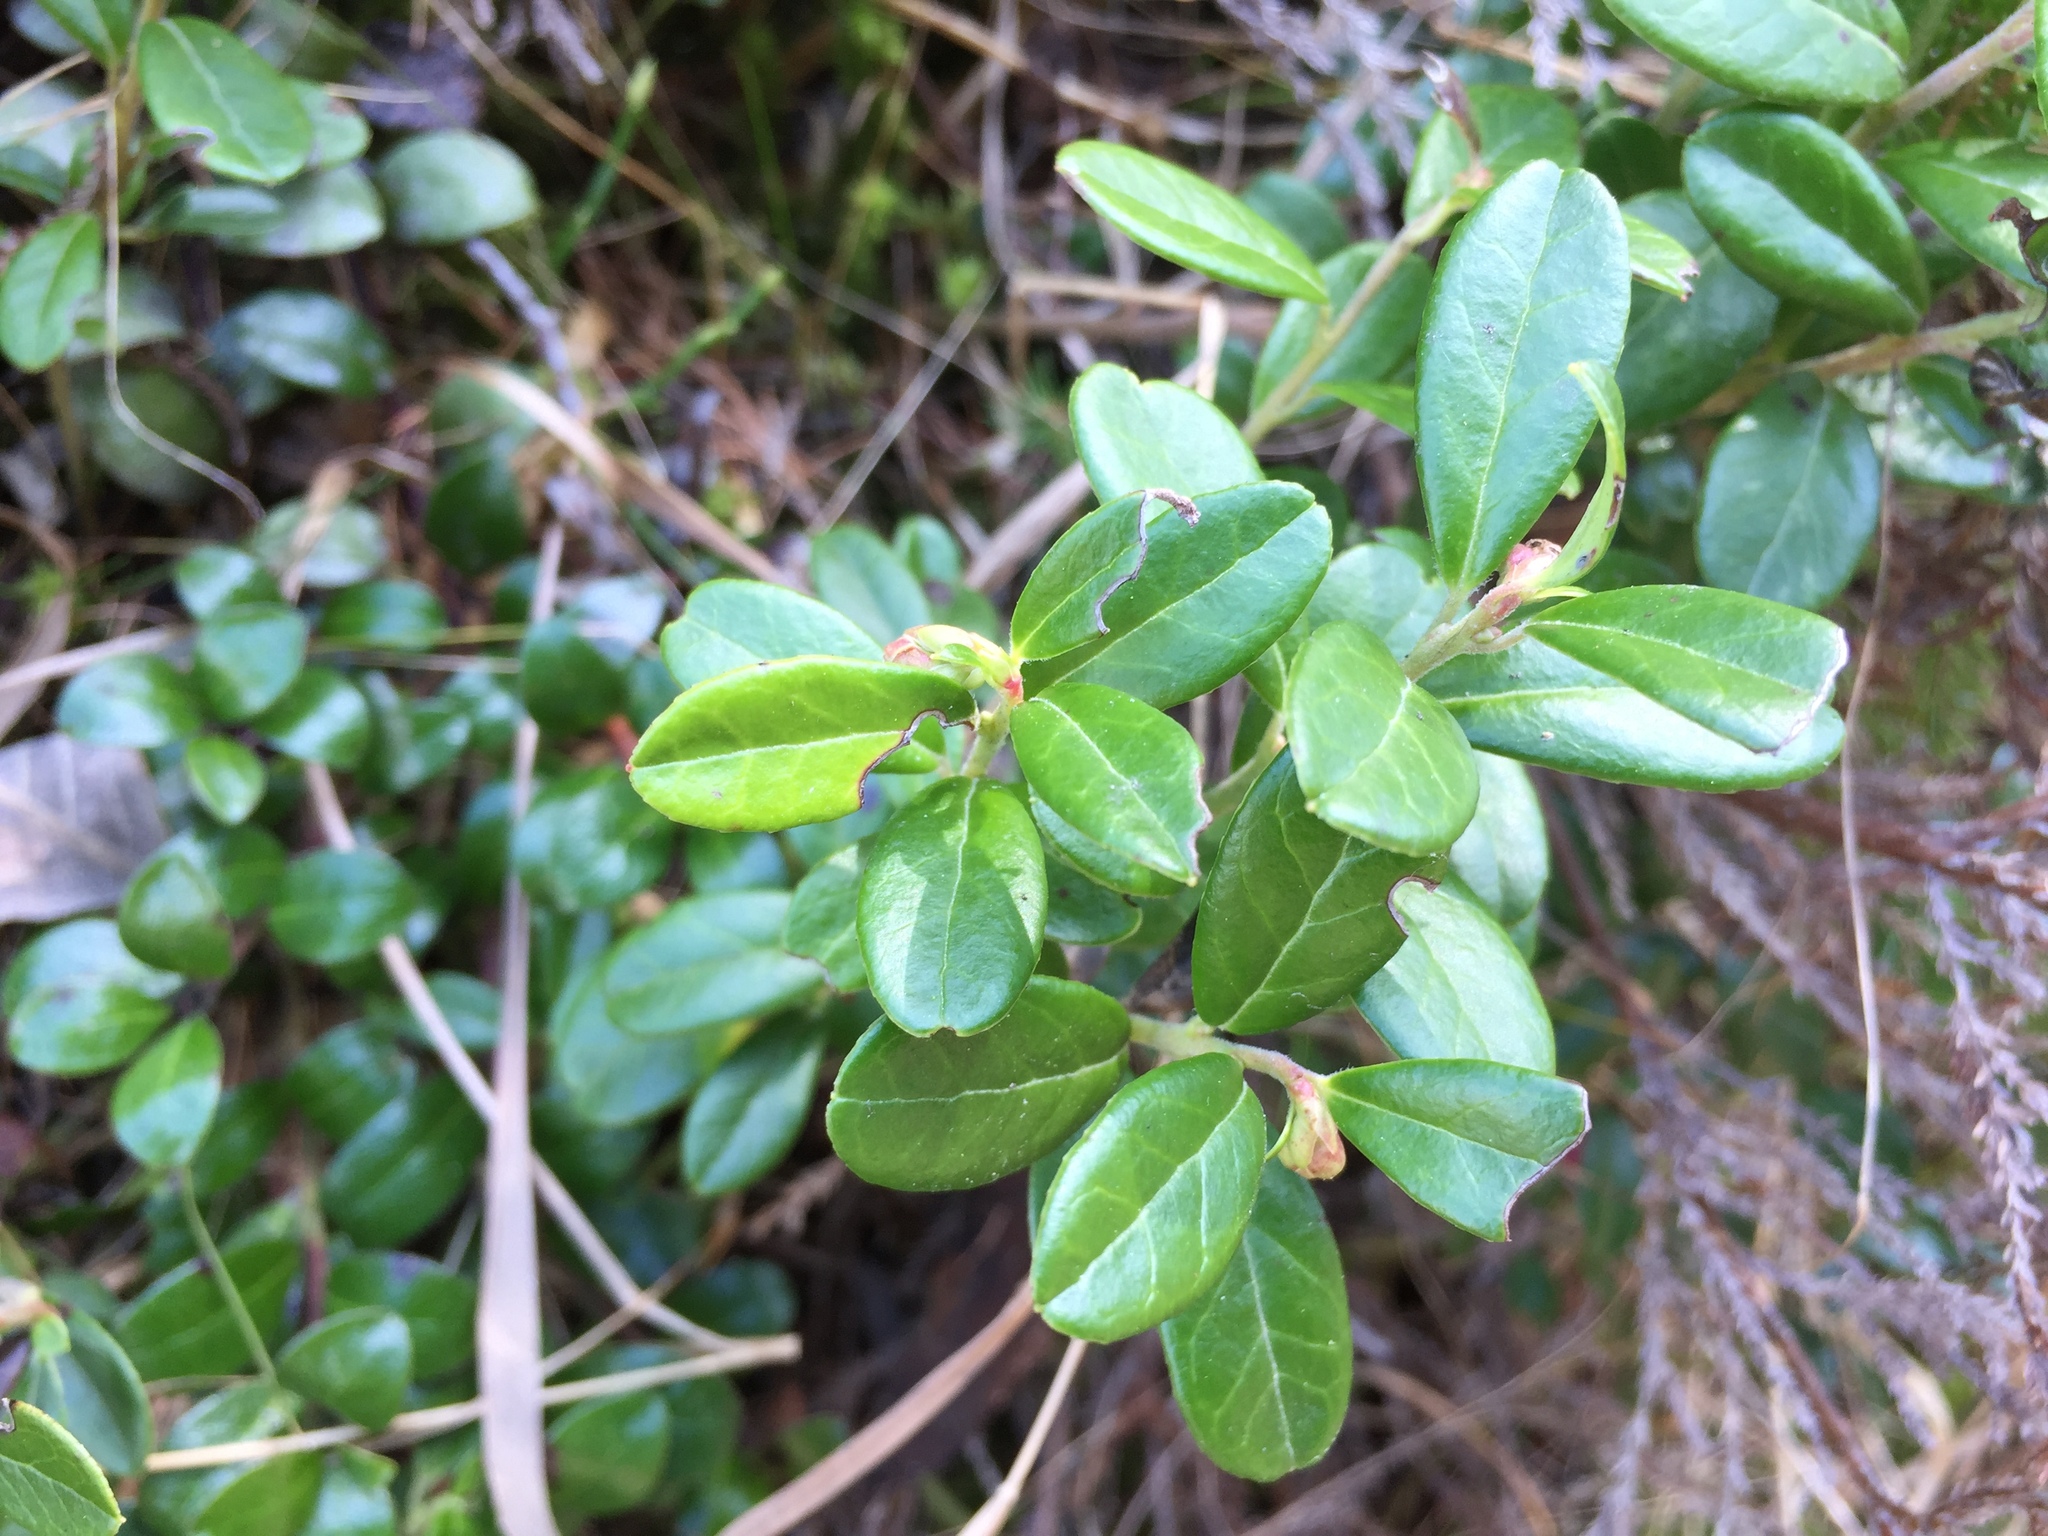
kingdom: Plantae
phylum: Tracheophyta
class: Magnoliopsida
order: Ericales
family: Ericaceae
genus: Vaccinium
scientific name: Vaccinium vitis-idaea
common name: Cowberry
